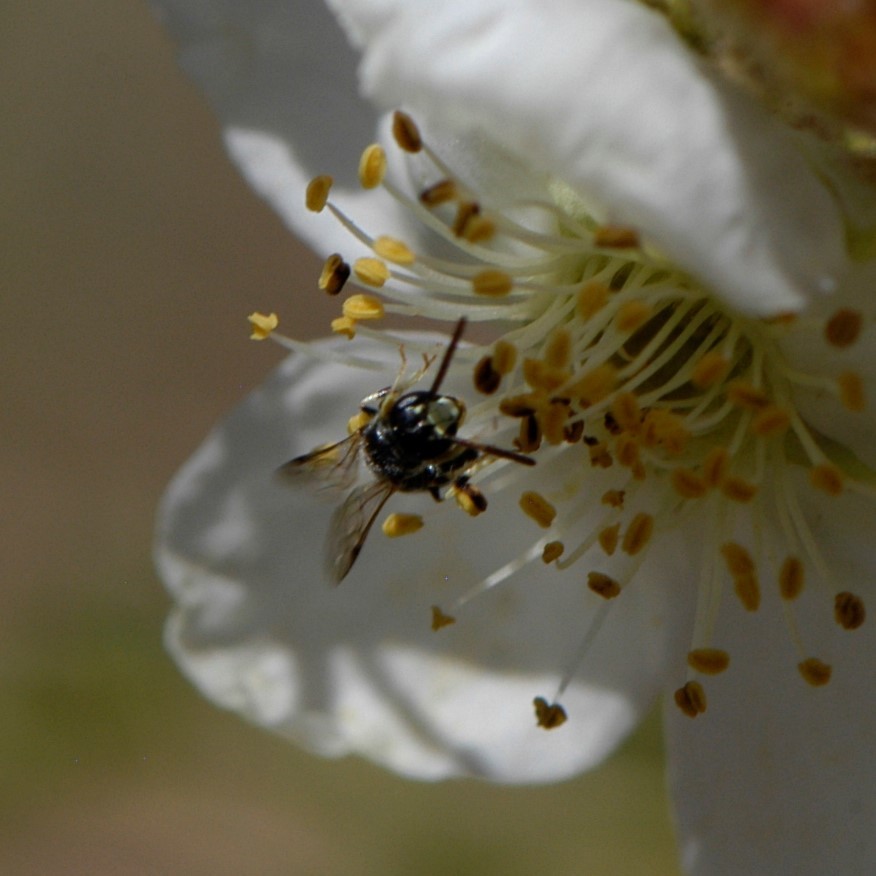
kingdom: Animalia
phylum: Arthropoda
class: Insecta
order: Hymenoptera
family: Colletidae
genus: Hylaeus
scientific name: Hylaeus
